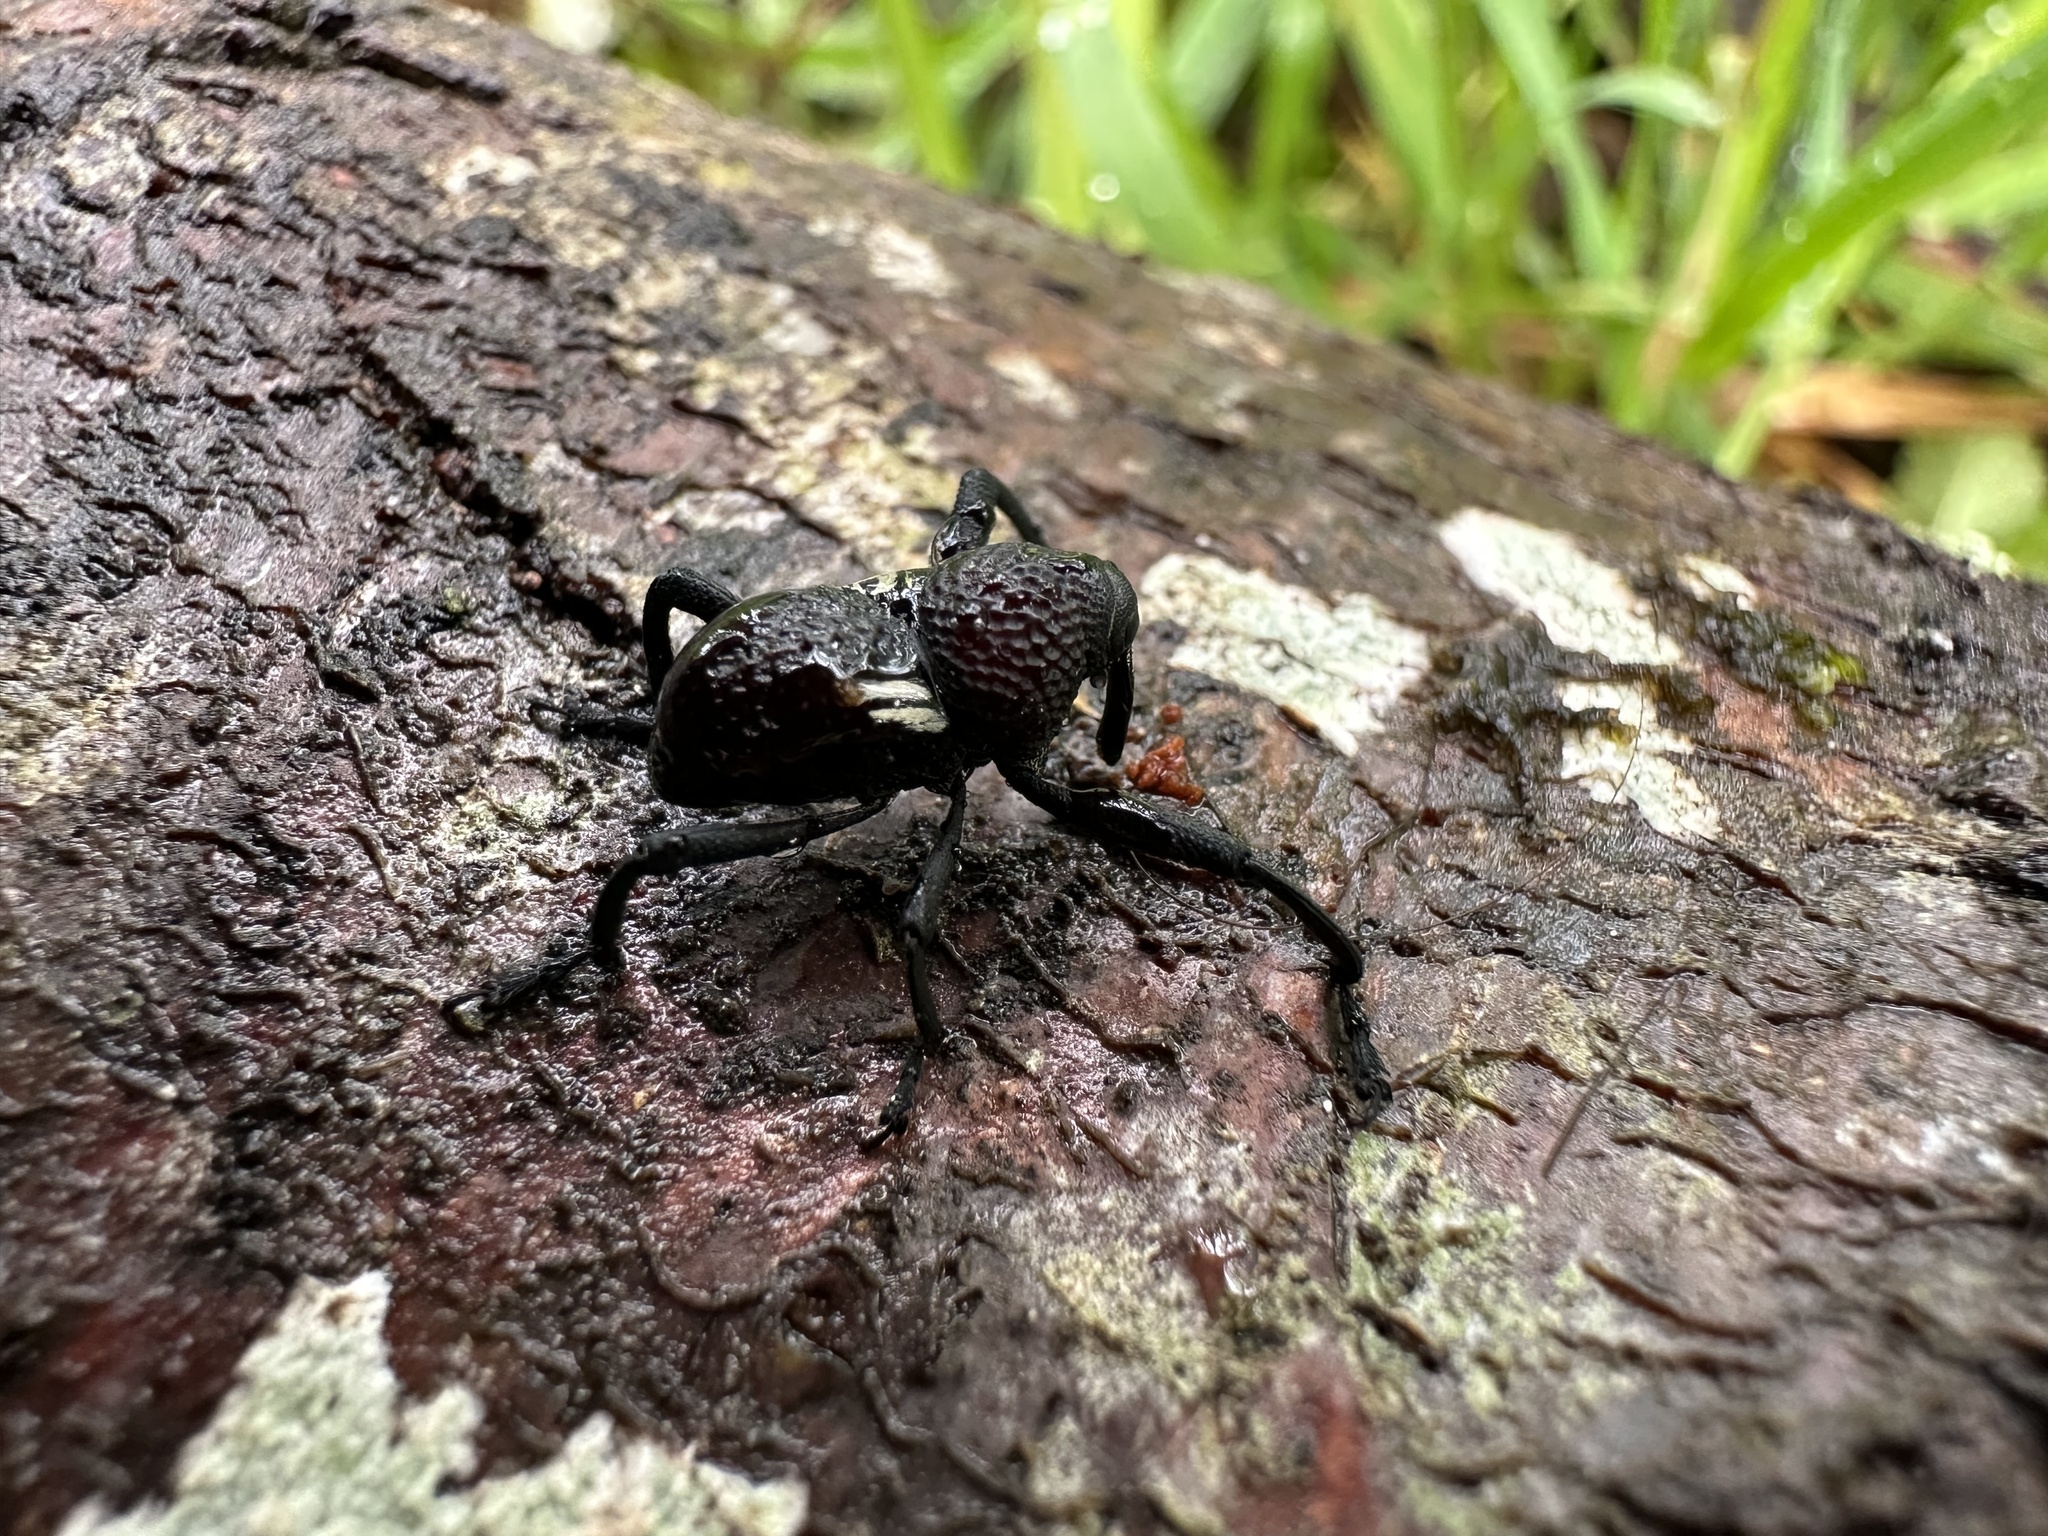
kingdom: Animalia
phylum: Arthropoda
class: Insecta
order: Coleoptera
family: Curculionidae
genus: Rhyephenes
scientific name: Rhyephenes humeralis
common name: Araè±ita chilena del pino
